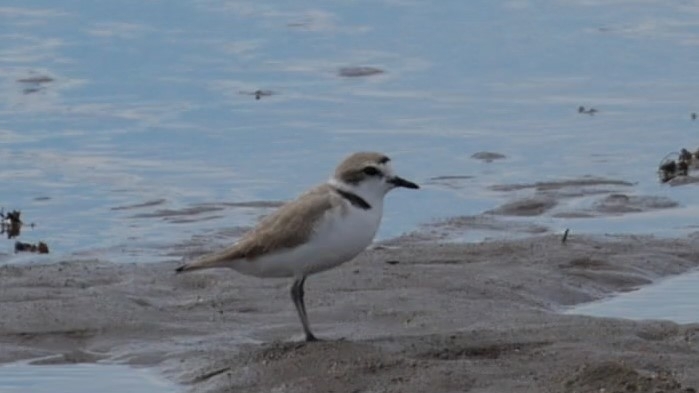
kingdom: Animalia
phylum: Chordata
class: Aves
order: Charadriiformes
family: Charadriidae
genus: Anarhynchus
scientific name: Anarhynchus
